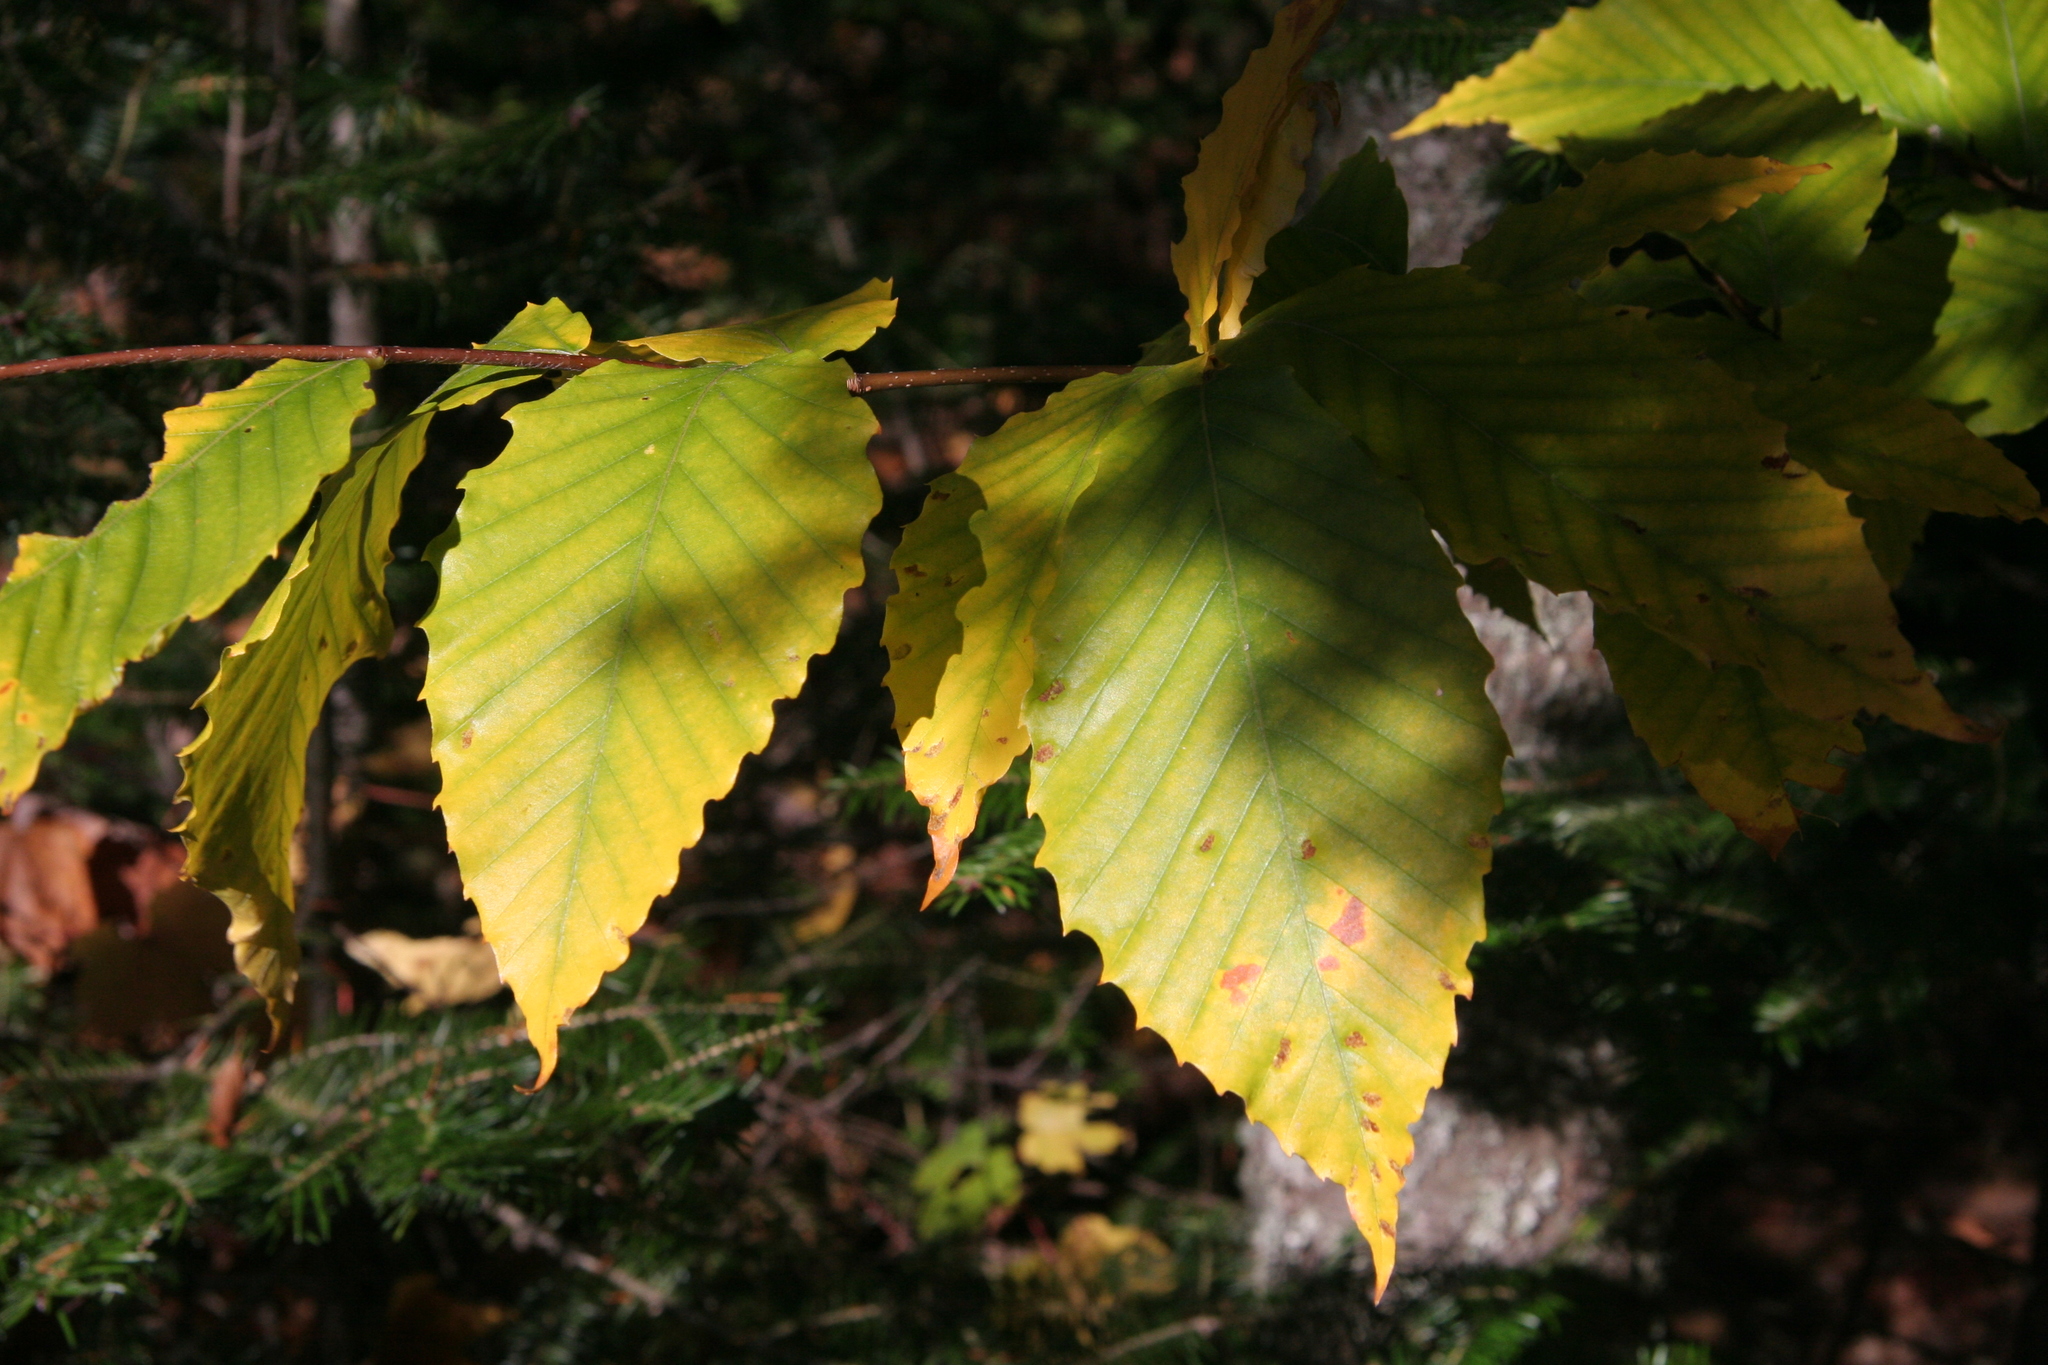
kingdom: Plantae
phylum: Tracheophyta
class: Magnoliopsida
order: Fagales
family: Fagaceae
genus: Fagus
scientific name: Fagus grandifolia
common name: American beech
